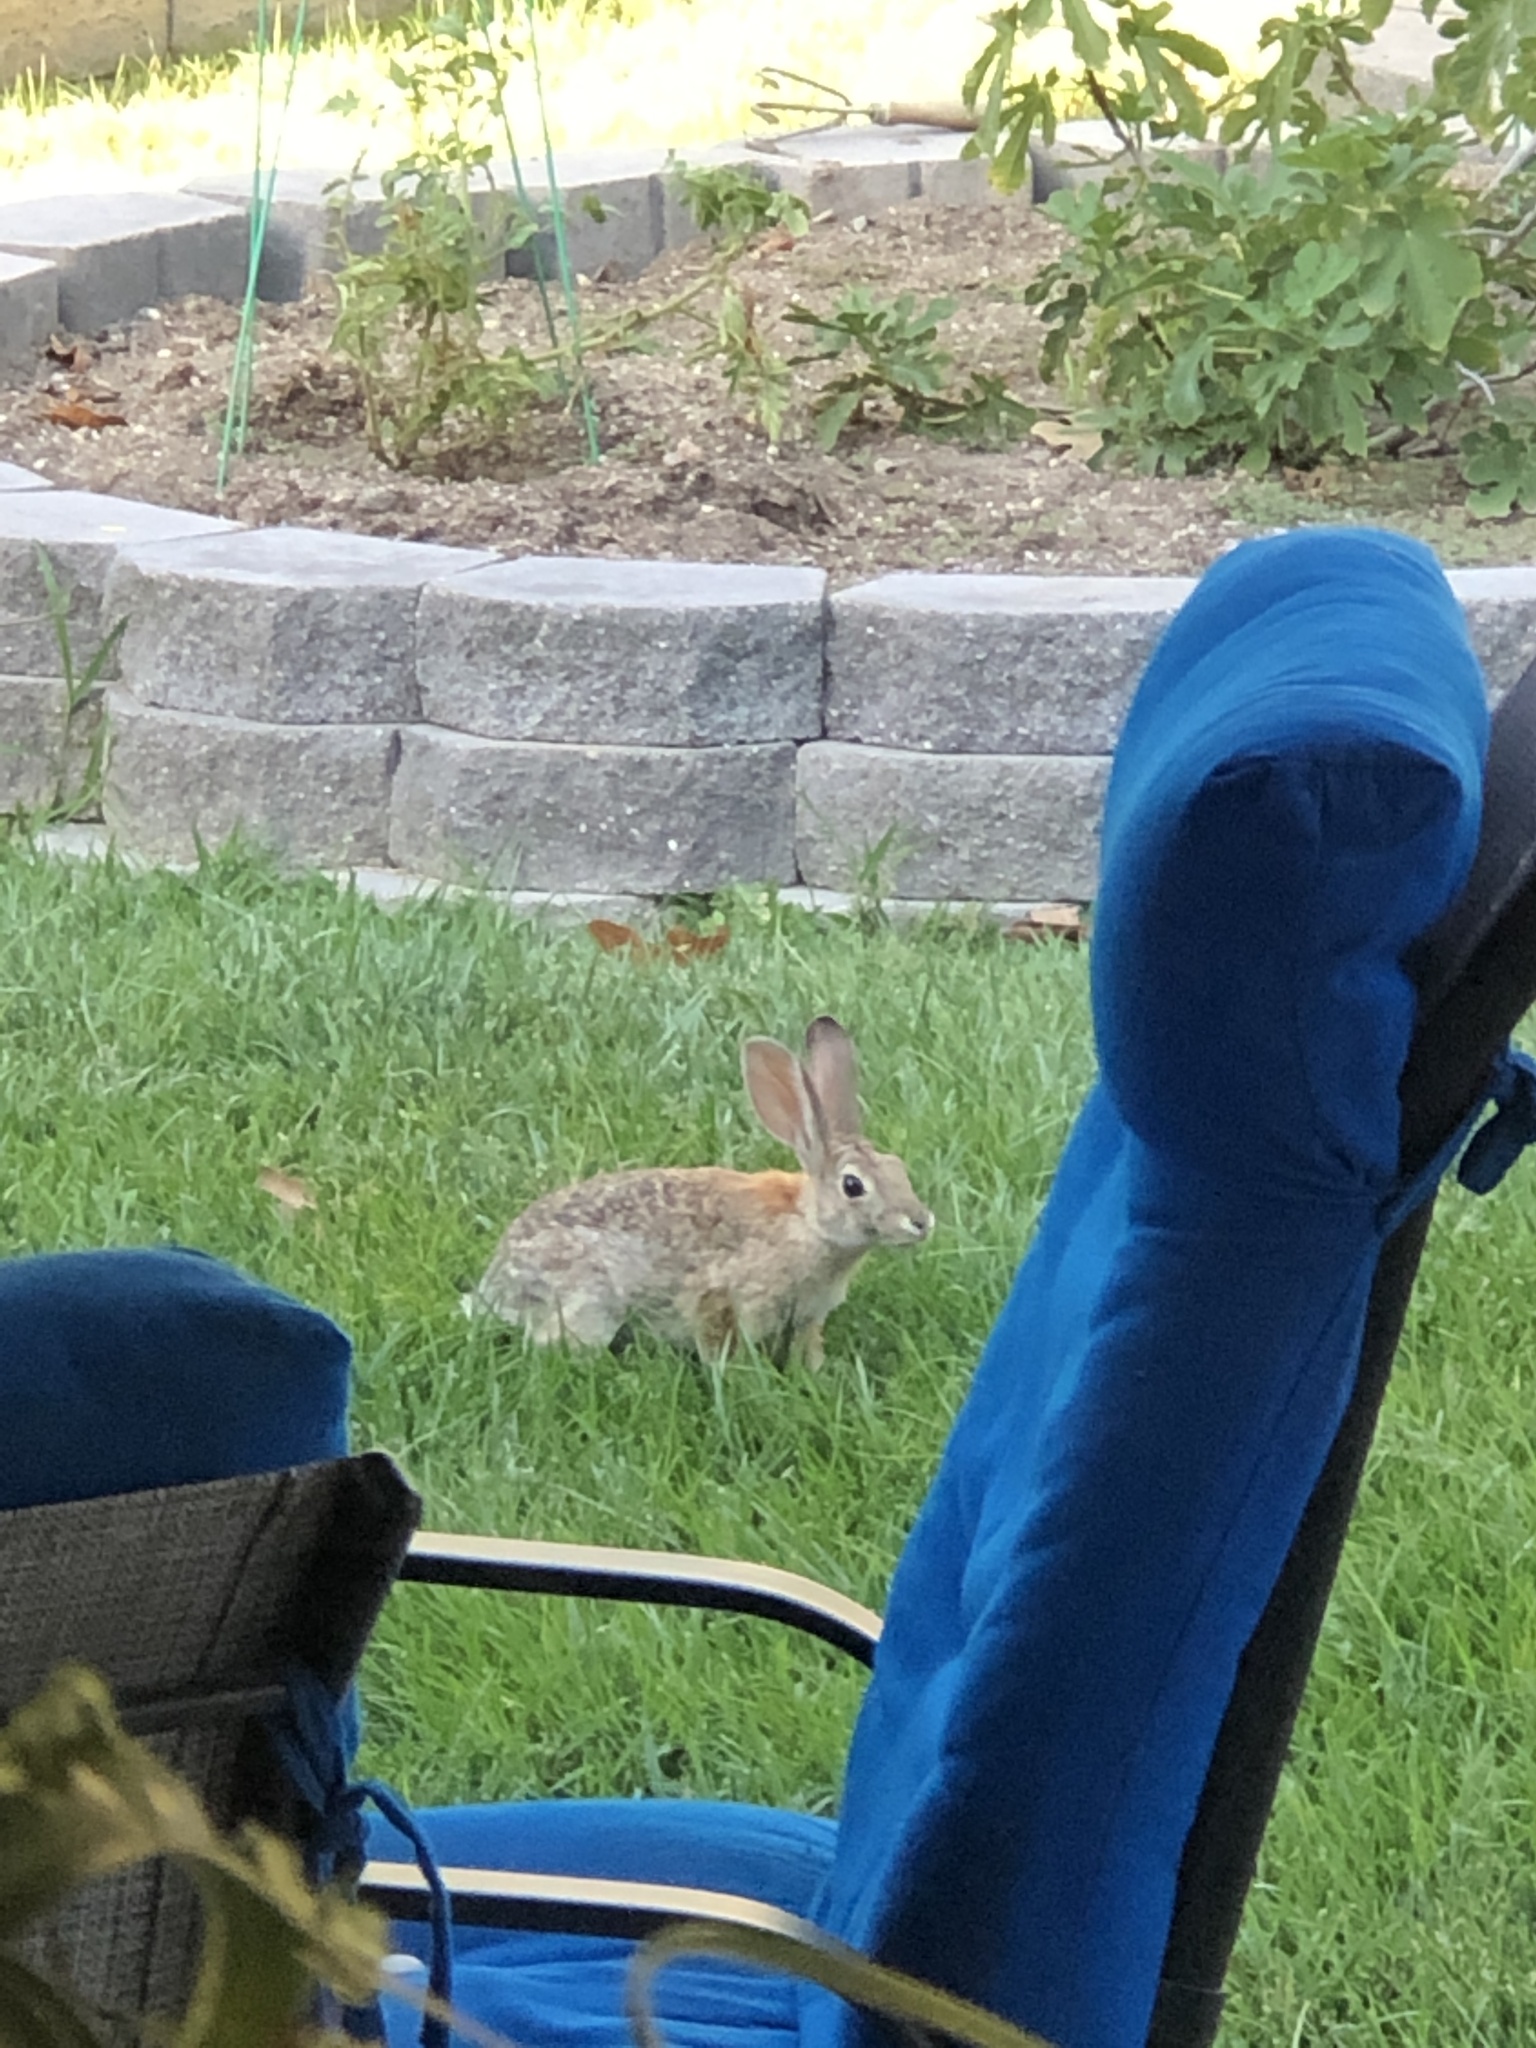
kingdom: Animalia
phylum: Chordata
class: Mammalia
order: Lagomorpha
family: Leporidae
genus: Sylvilagus
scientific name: Sylvilagus audubonii
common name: Desert cottontail
